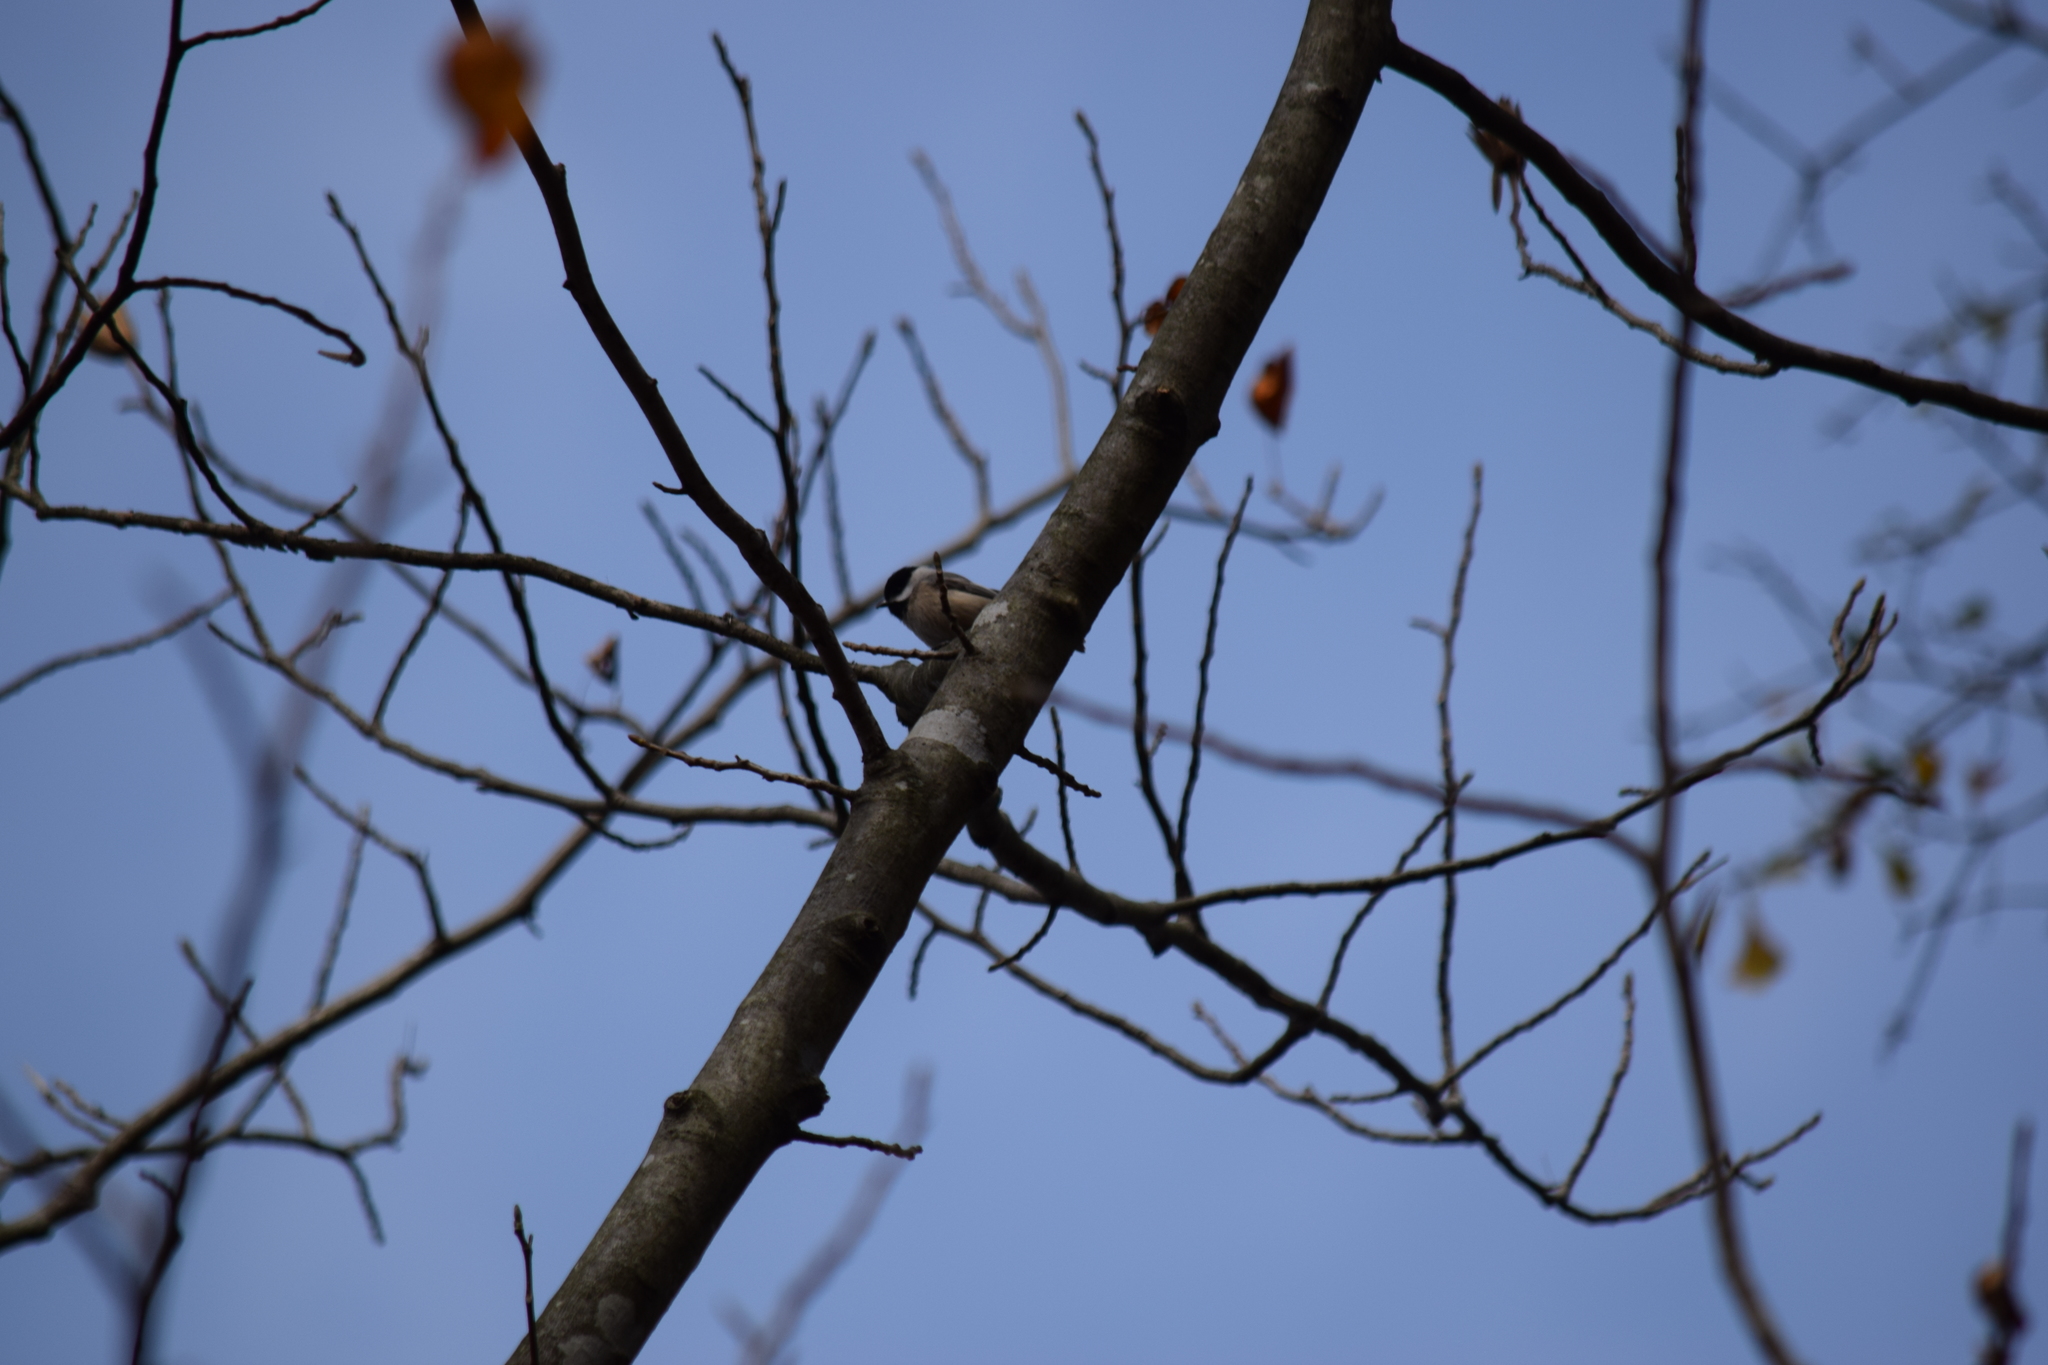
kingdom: Animalia
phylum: Chordata
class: Aves
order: Passeriformes
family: Paridae
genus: Poecile
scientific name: Poecile carolinensis
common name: Carolina chickadee
